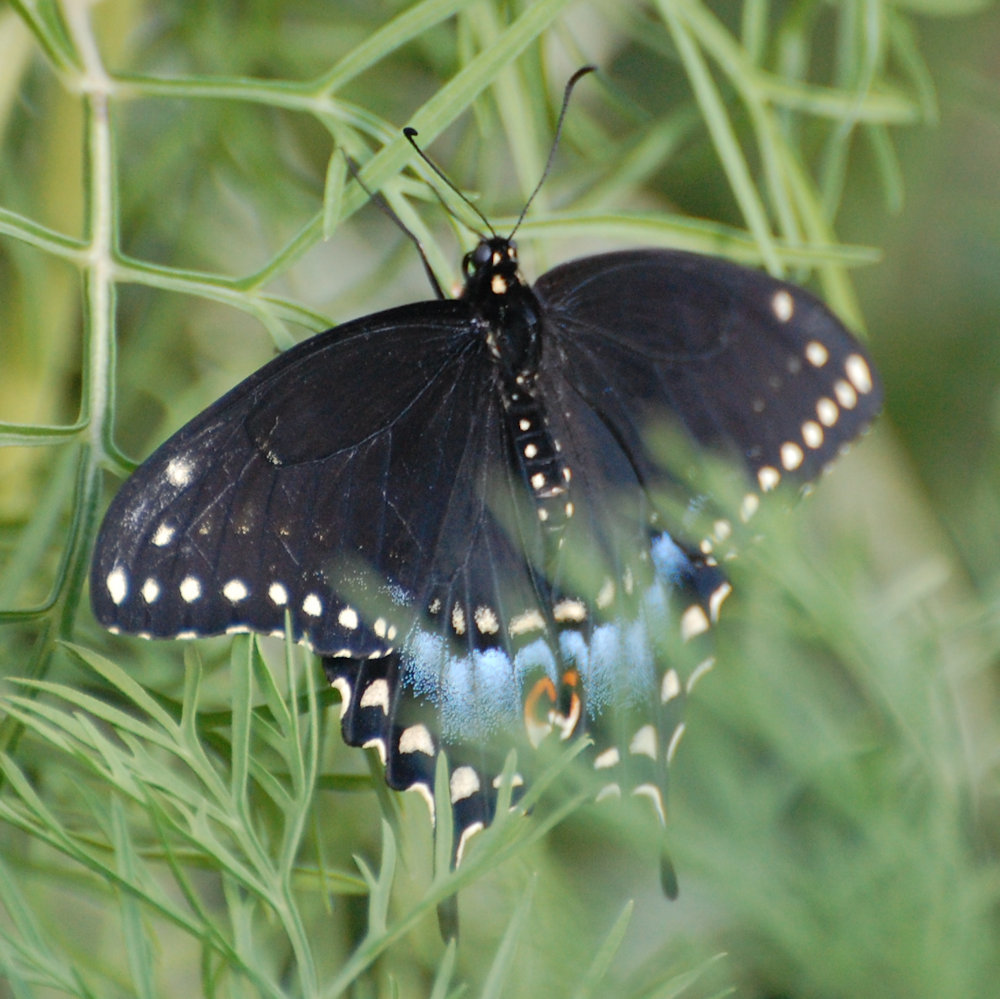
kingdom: Animalia
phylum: Arthropoda
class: Insecta
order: Lepidoptera
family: Papilionidae
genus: Papilio
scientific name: Papilio polyxenes
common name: Black swallowtail
